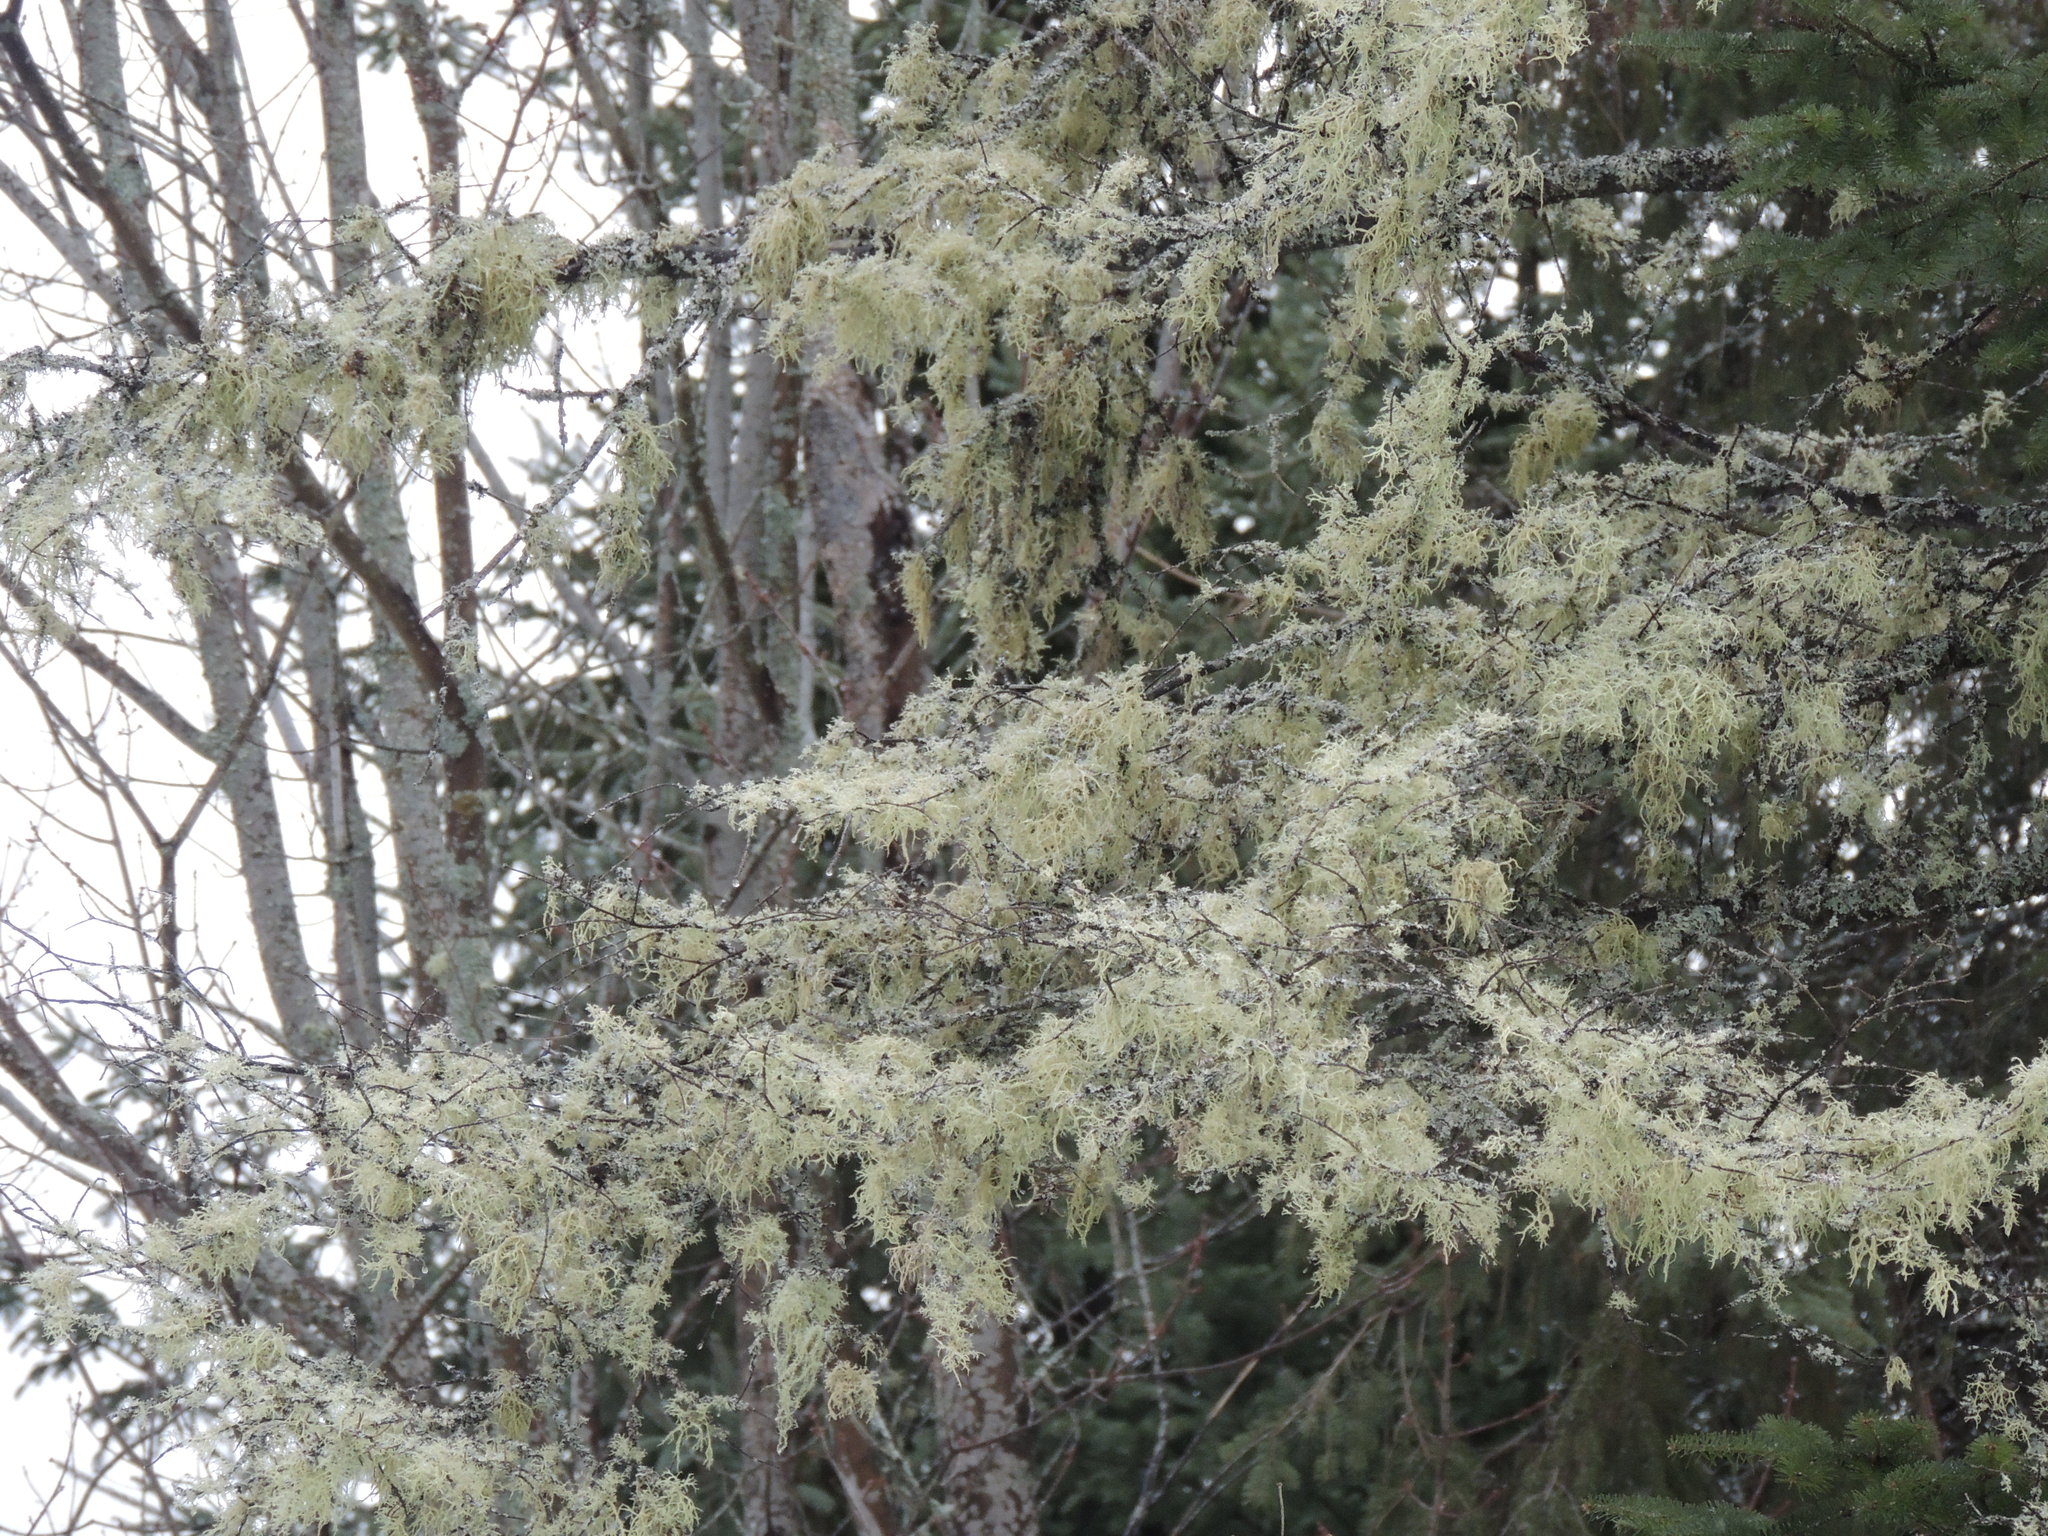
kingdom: Fungi
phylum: Ascomycota
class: Lecanoromycetes
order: Lecanorales
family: Parmeliaceae
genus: Evernia
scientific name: Evernia mesomorpha
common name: Boreal oak moss lichen
